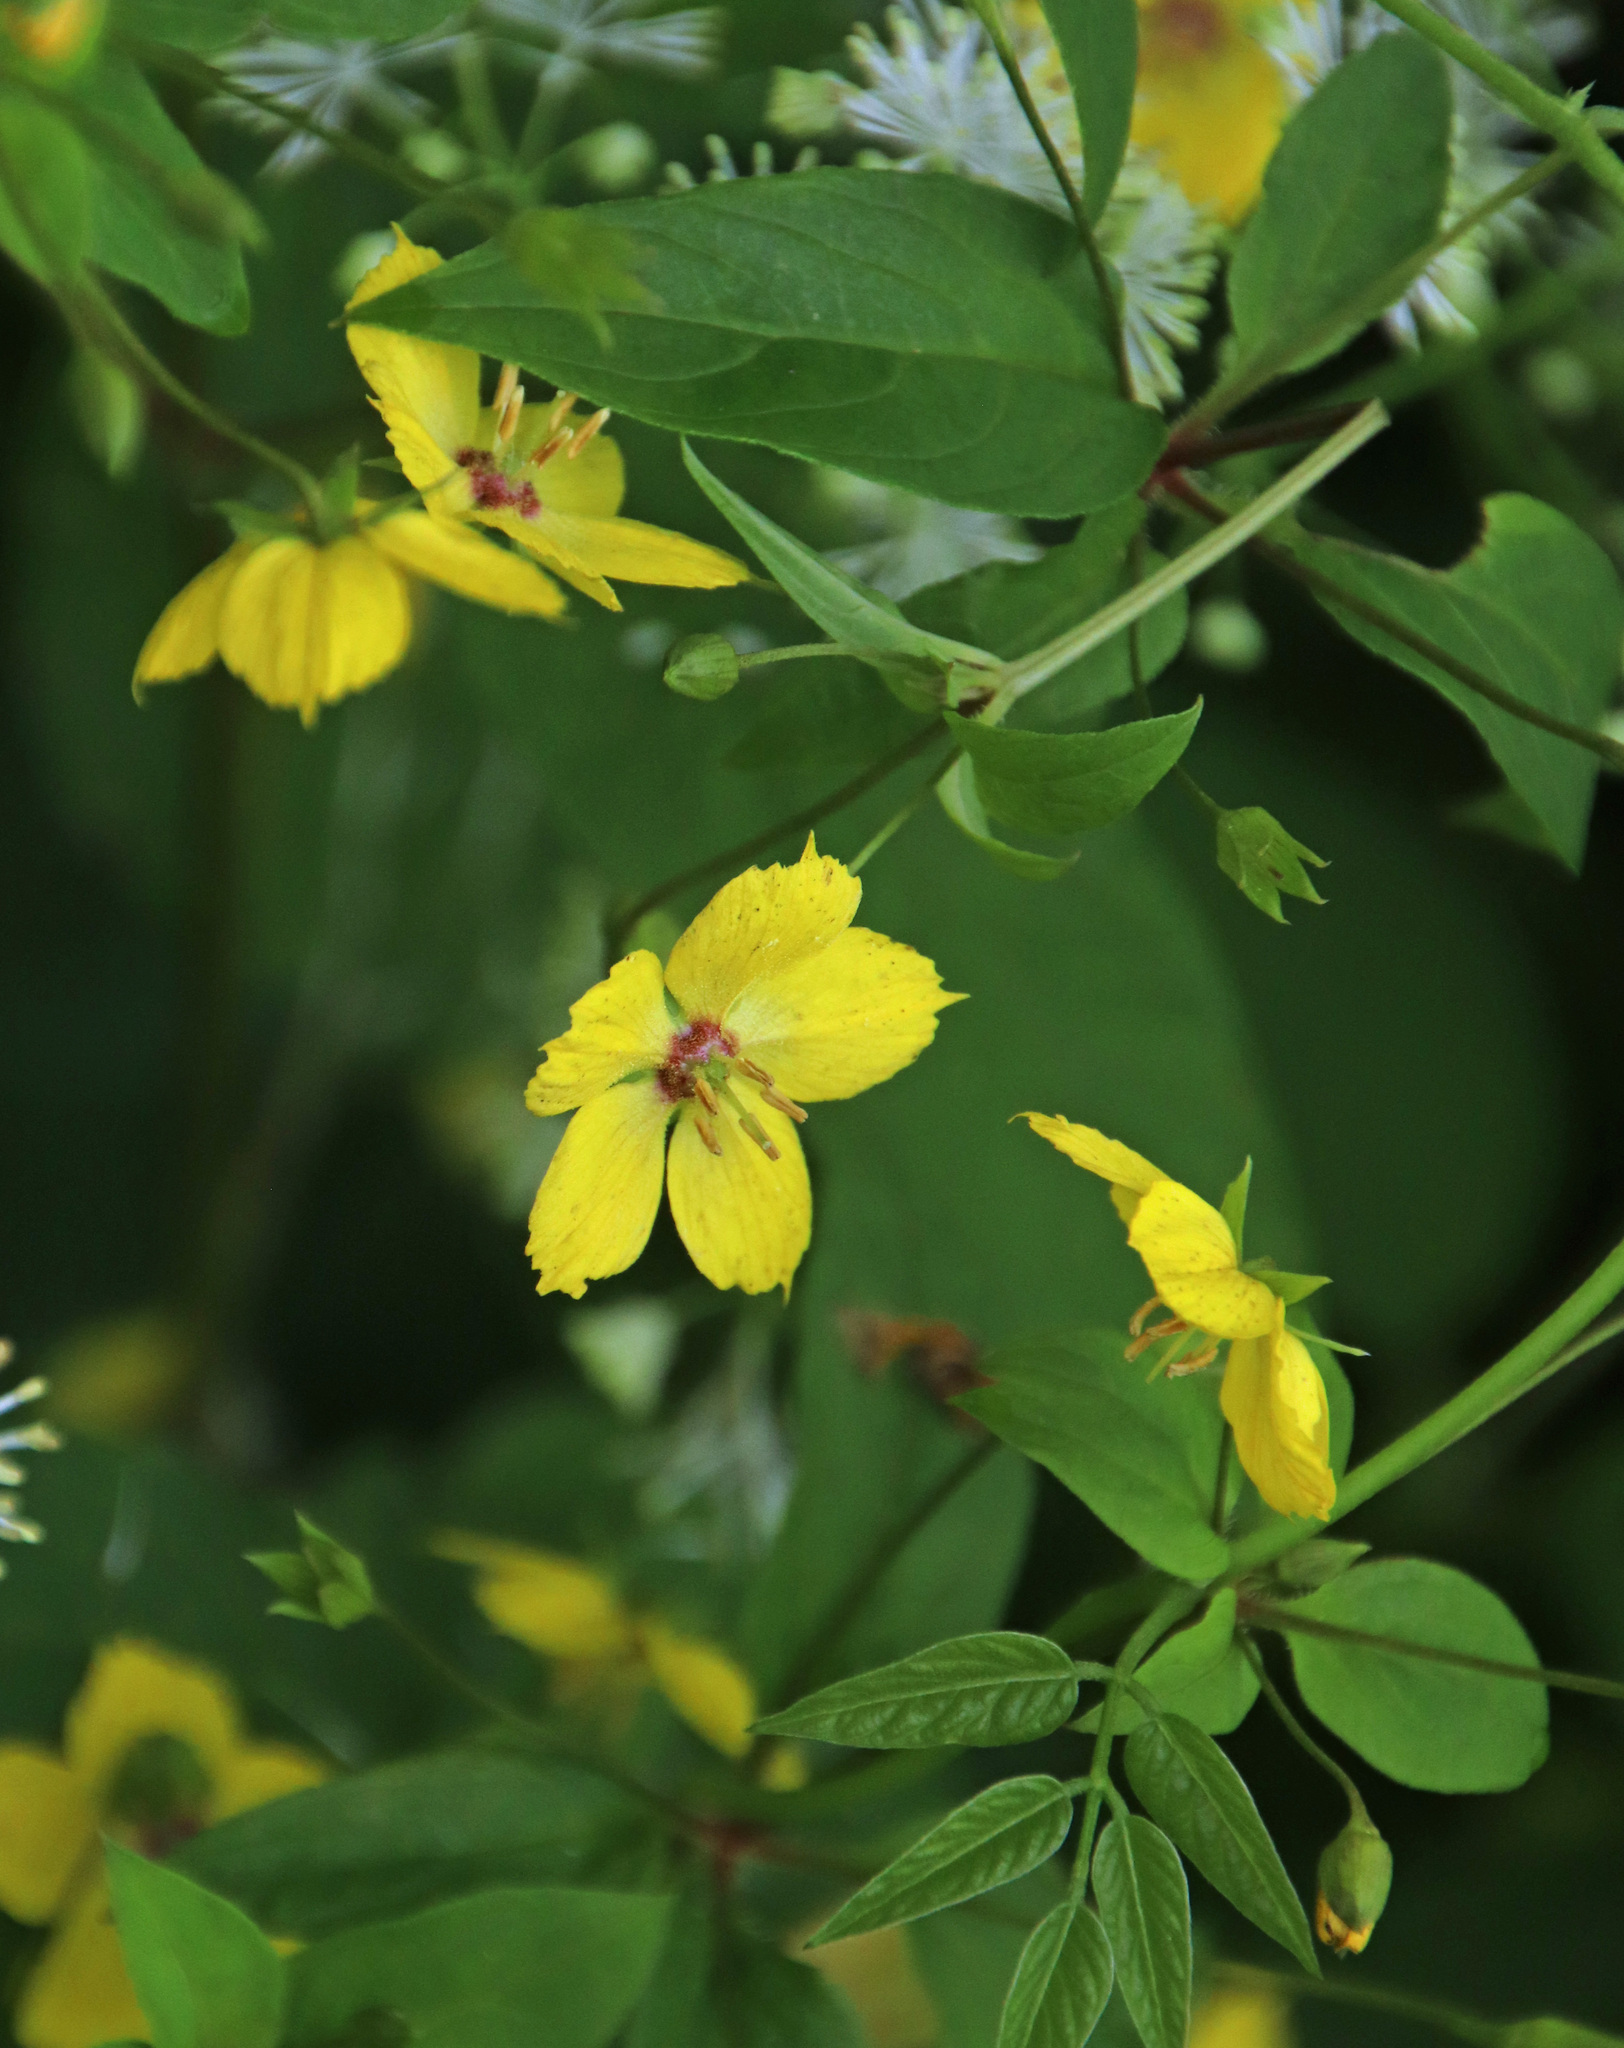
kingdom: Plantae
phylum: Tracheophyta
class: Magnoliopsida
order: Ericales
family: Primulaceae
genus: Lysimachia
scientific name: Lysimachia ciliata
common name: Fringed loosestrife
